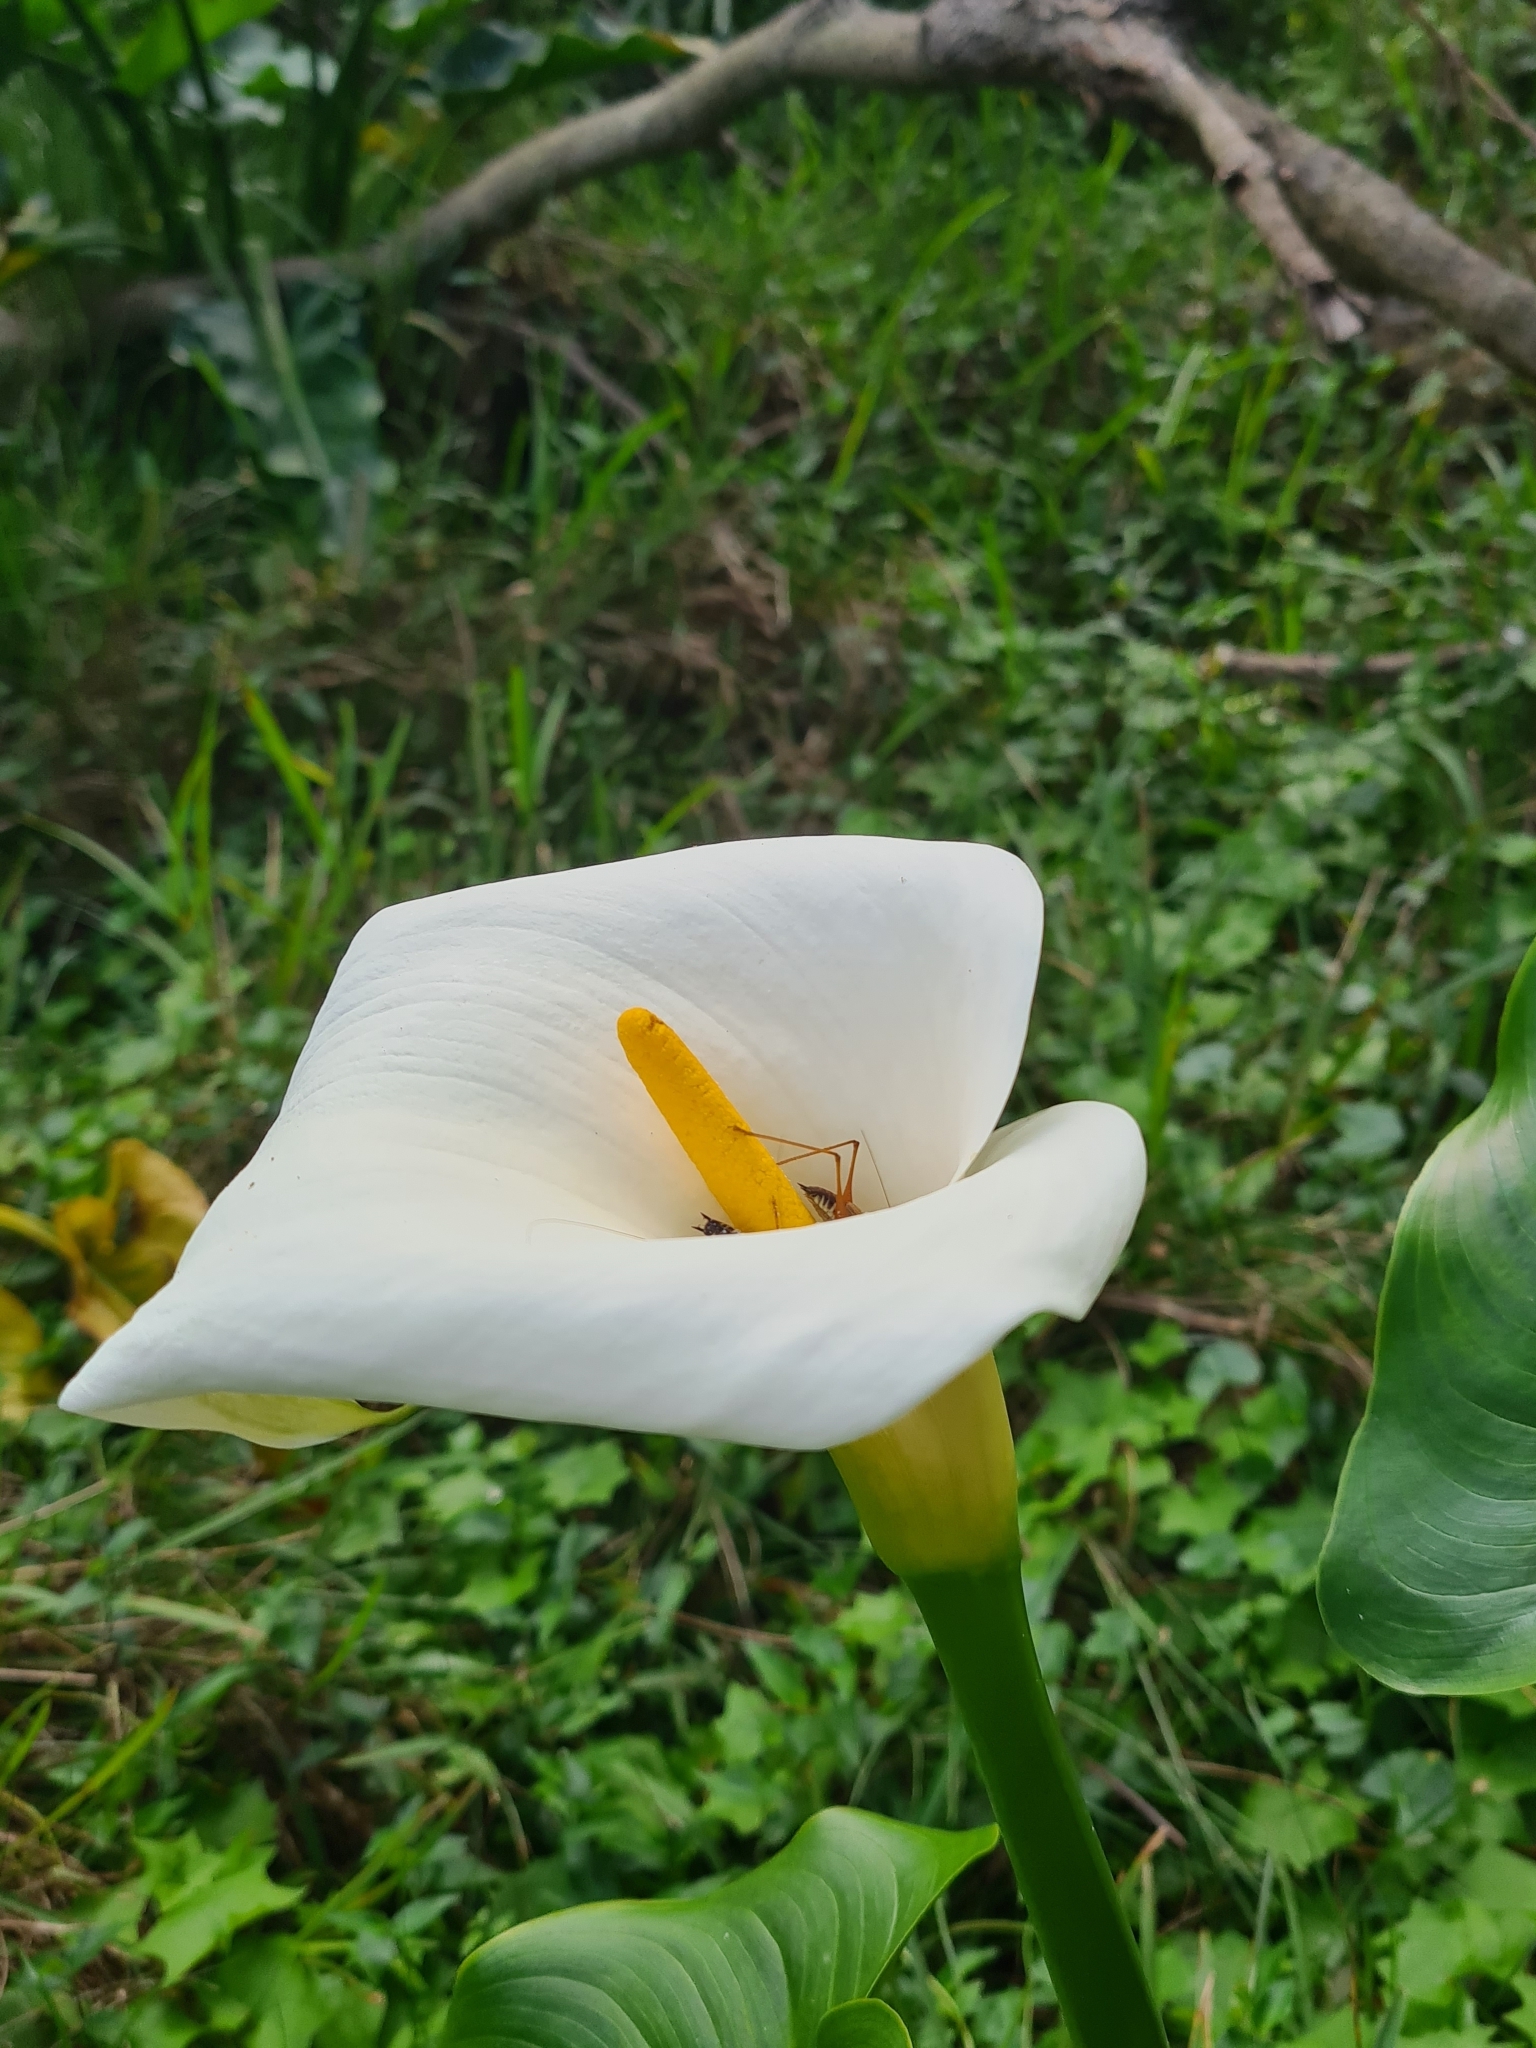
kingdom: Plantae
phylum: Tracheophyta
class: Liliopsida
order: Alismatales
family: Araceae
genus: Zantedeschia
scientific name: Zantedeschia aethiopica
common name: Altar-lily
